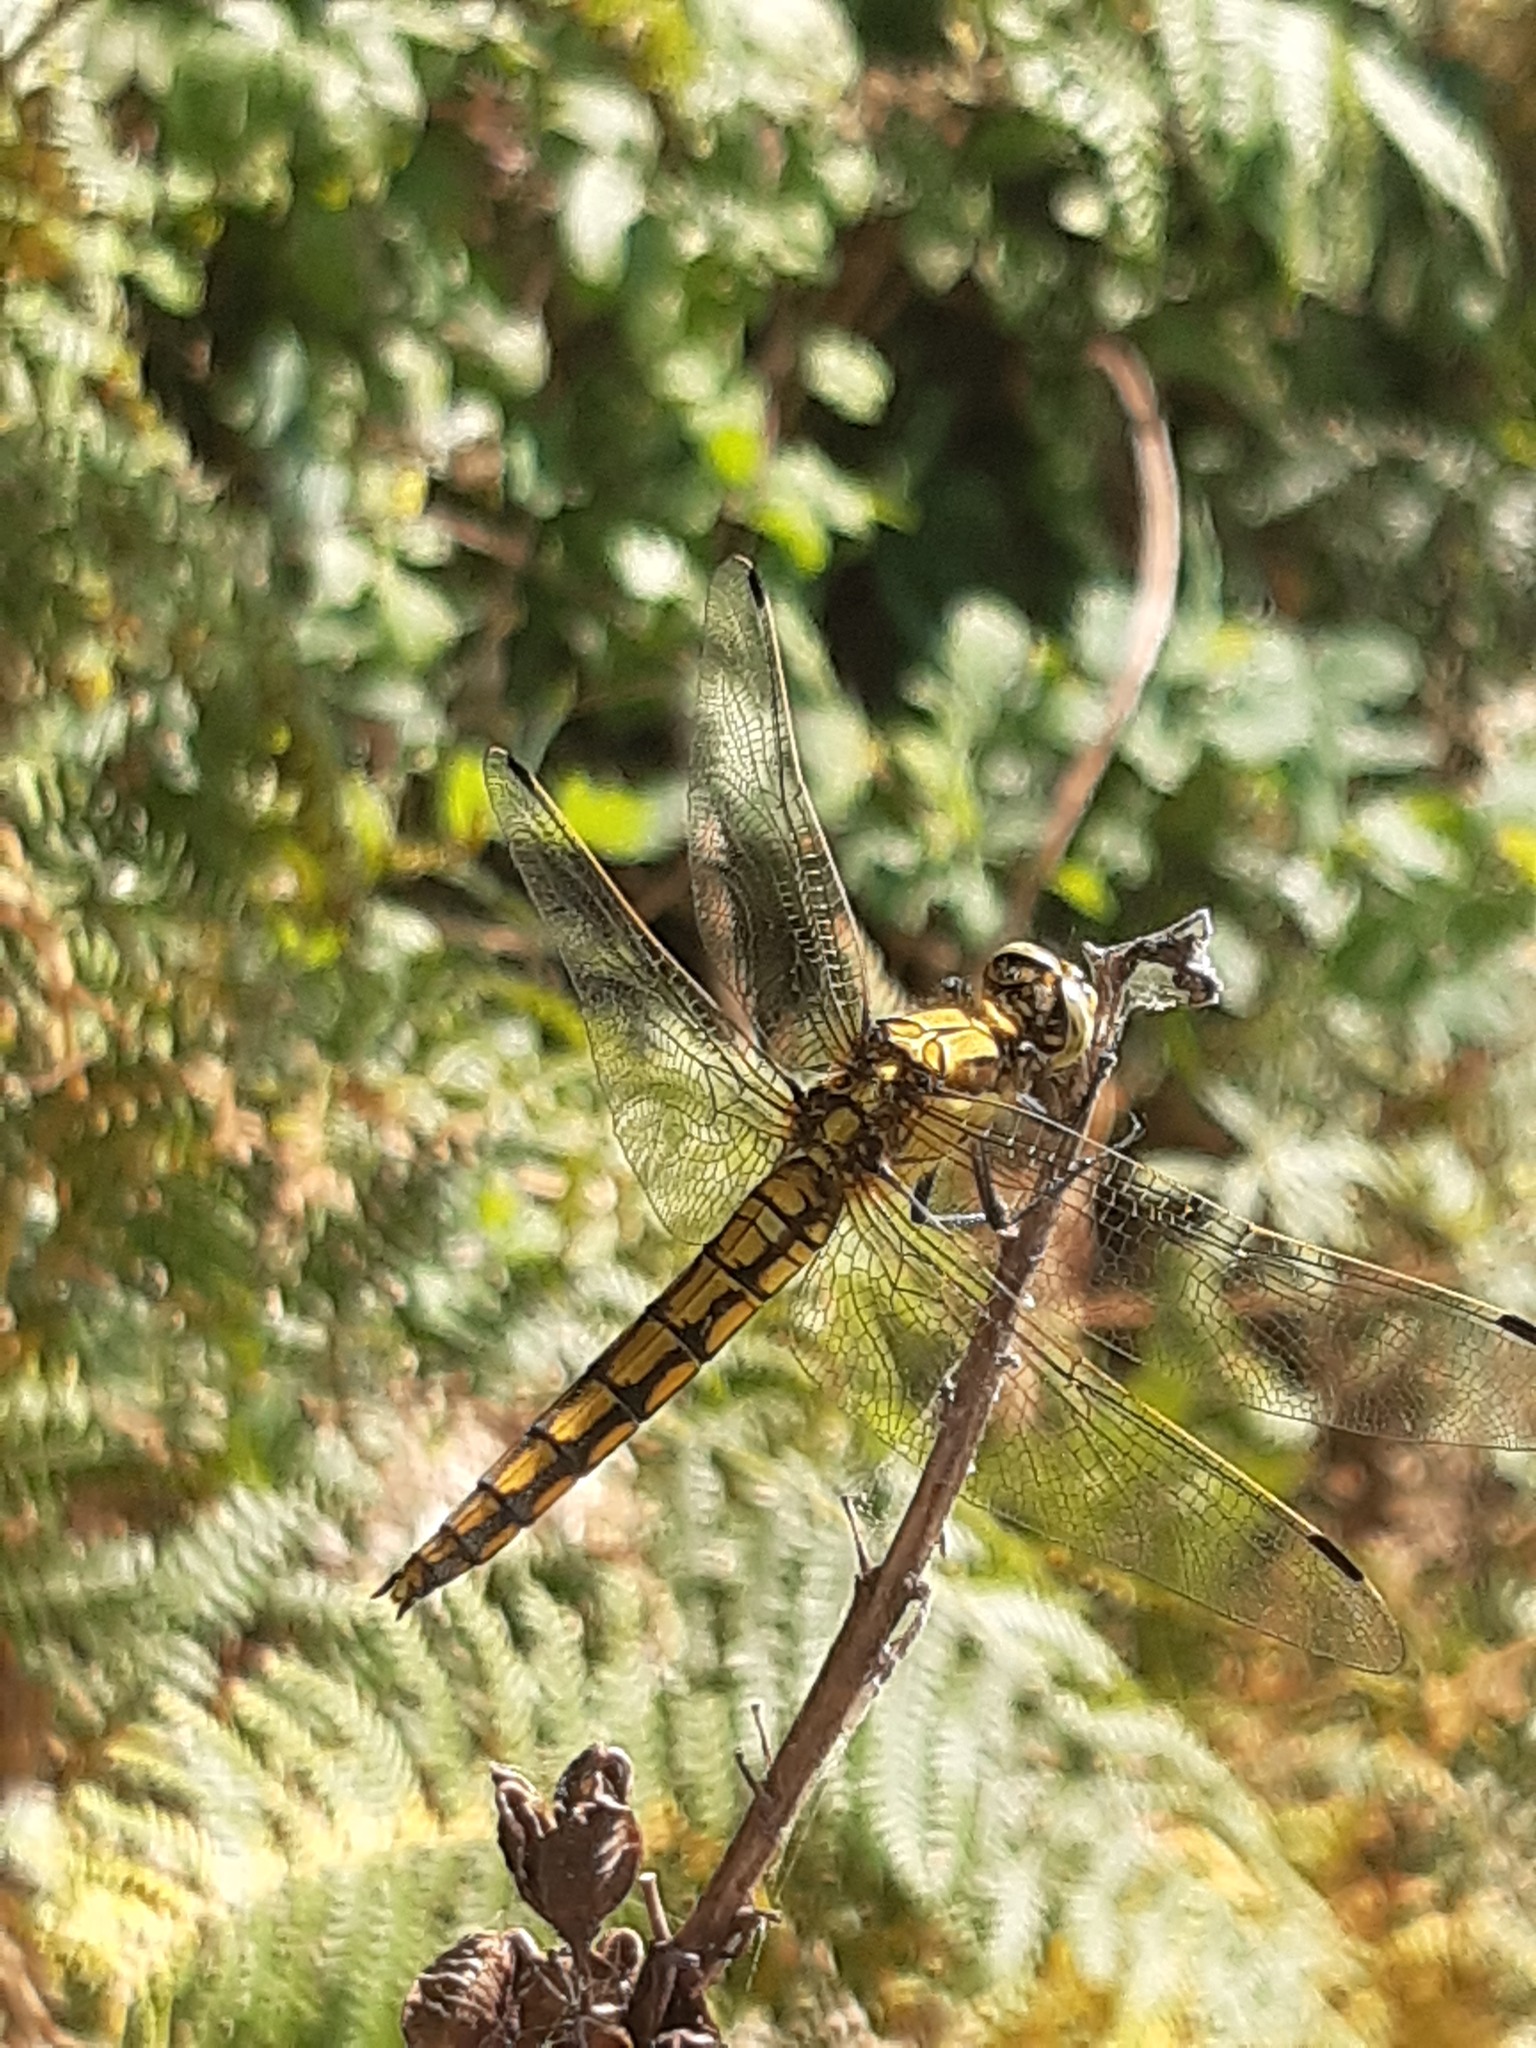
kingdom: Animalia
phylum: Arthropoda
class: Insecta
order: Odonata
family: Libellulidae
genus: Orthetrum
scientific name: Orthetrum cancellatum
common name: Black-tailed skimmer
